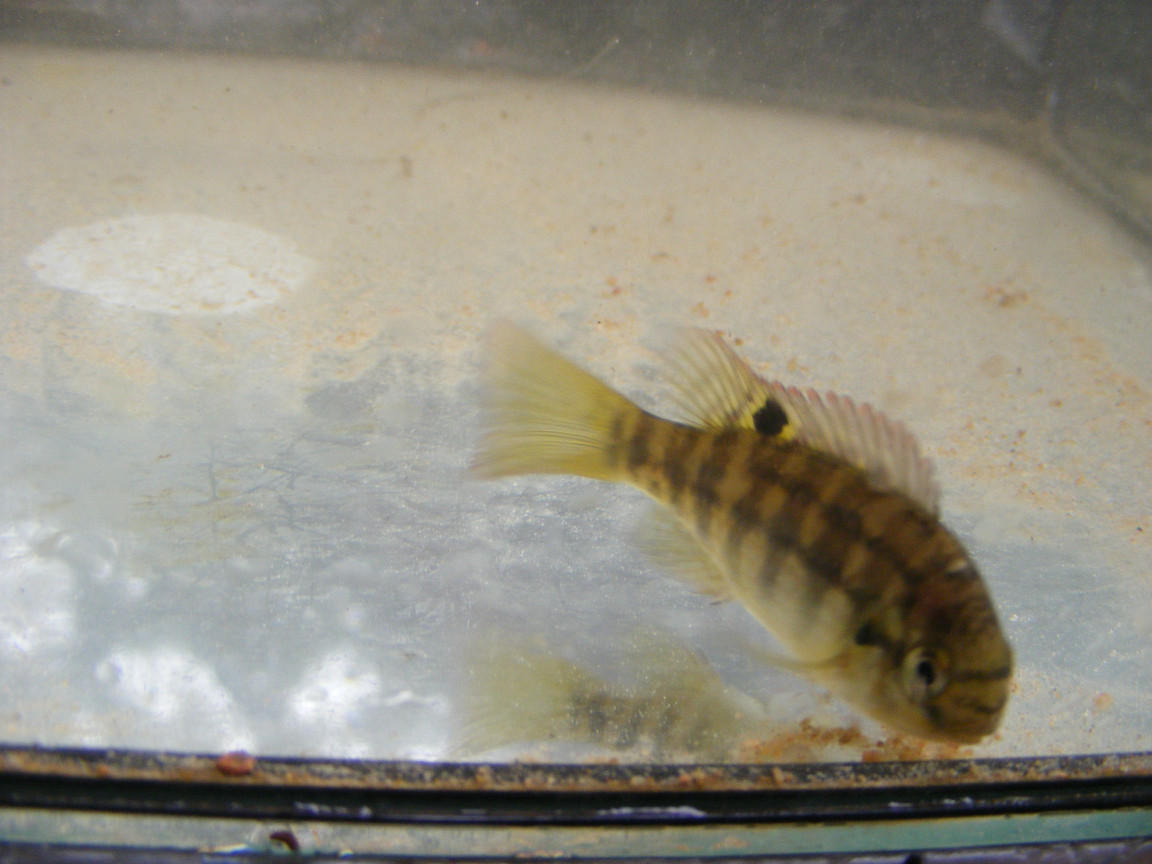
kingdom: Animalia
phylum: Chordata
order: Perciformes
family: Cichlidae
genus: Tilapia
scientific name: Tilapia sparrmanii
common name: Banded tilapia
